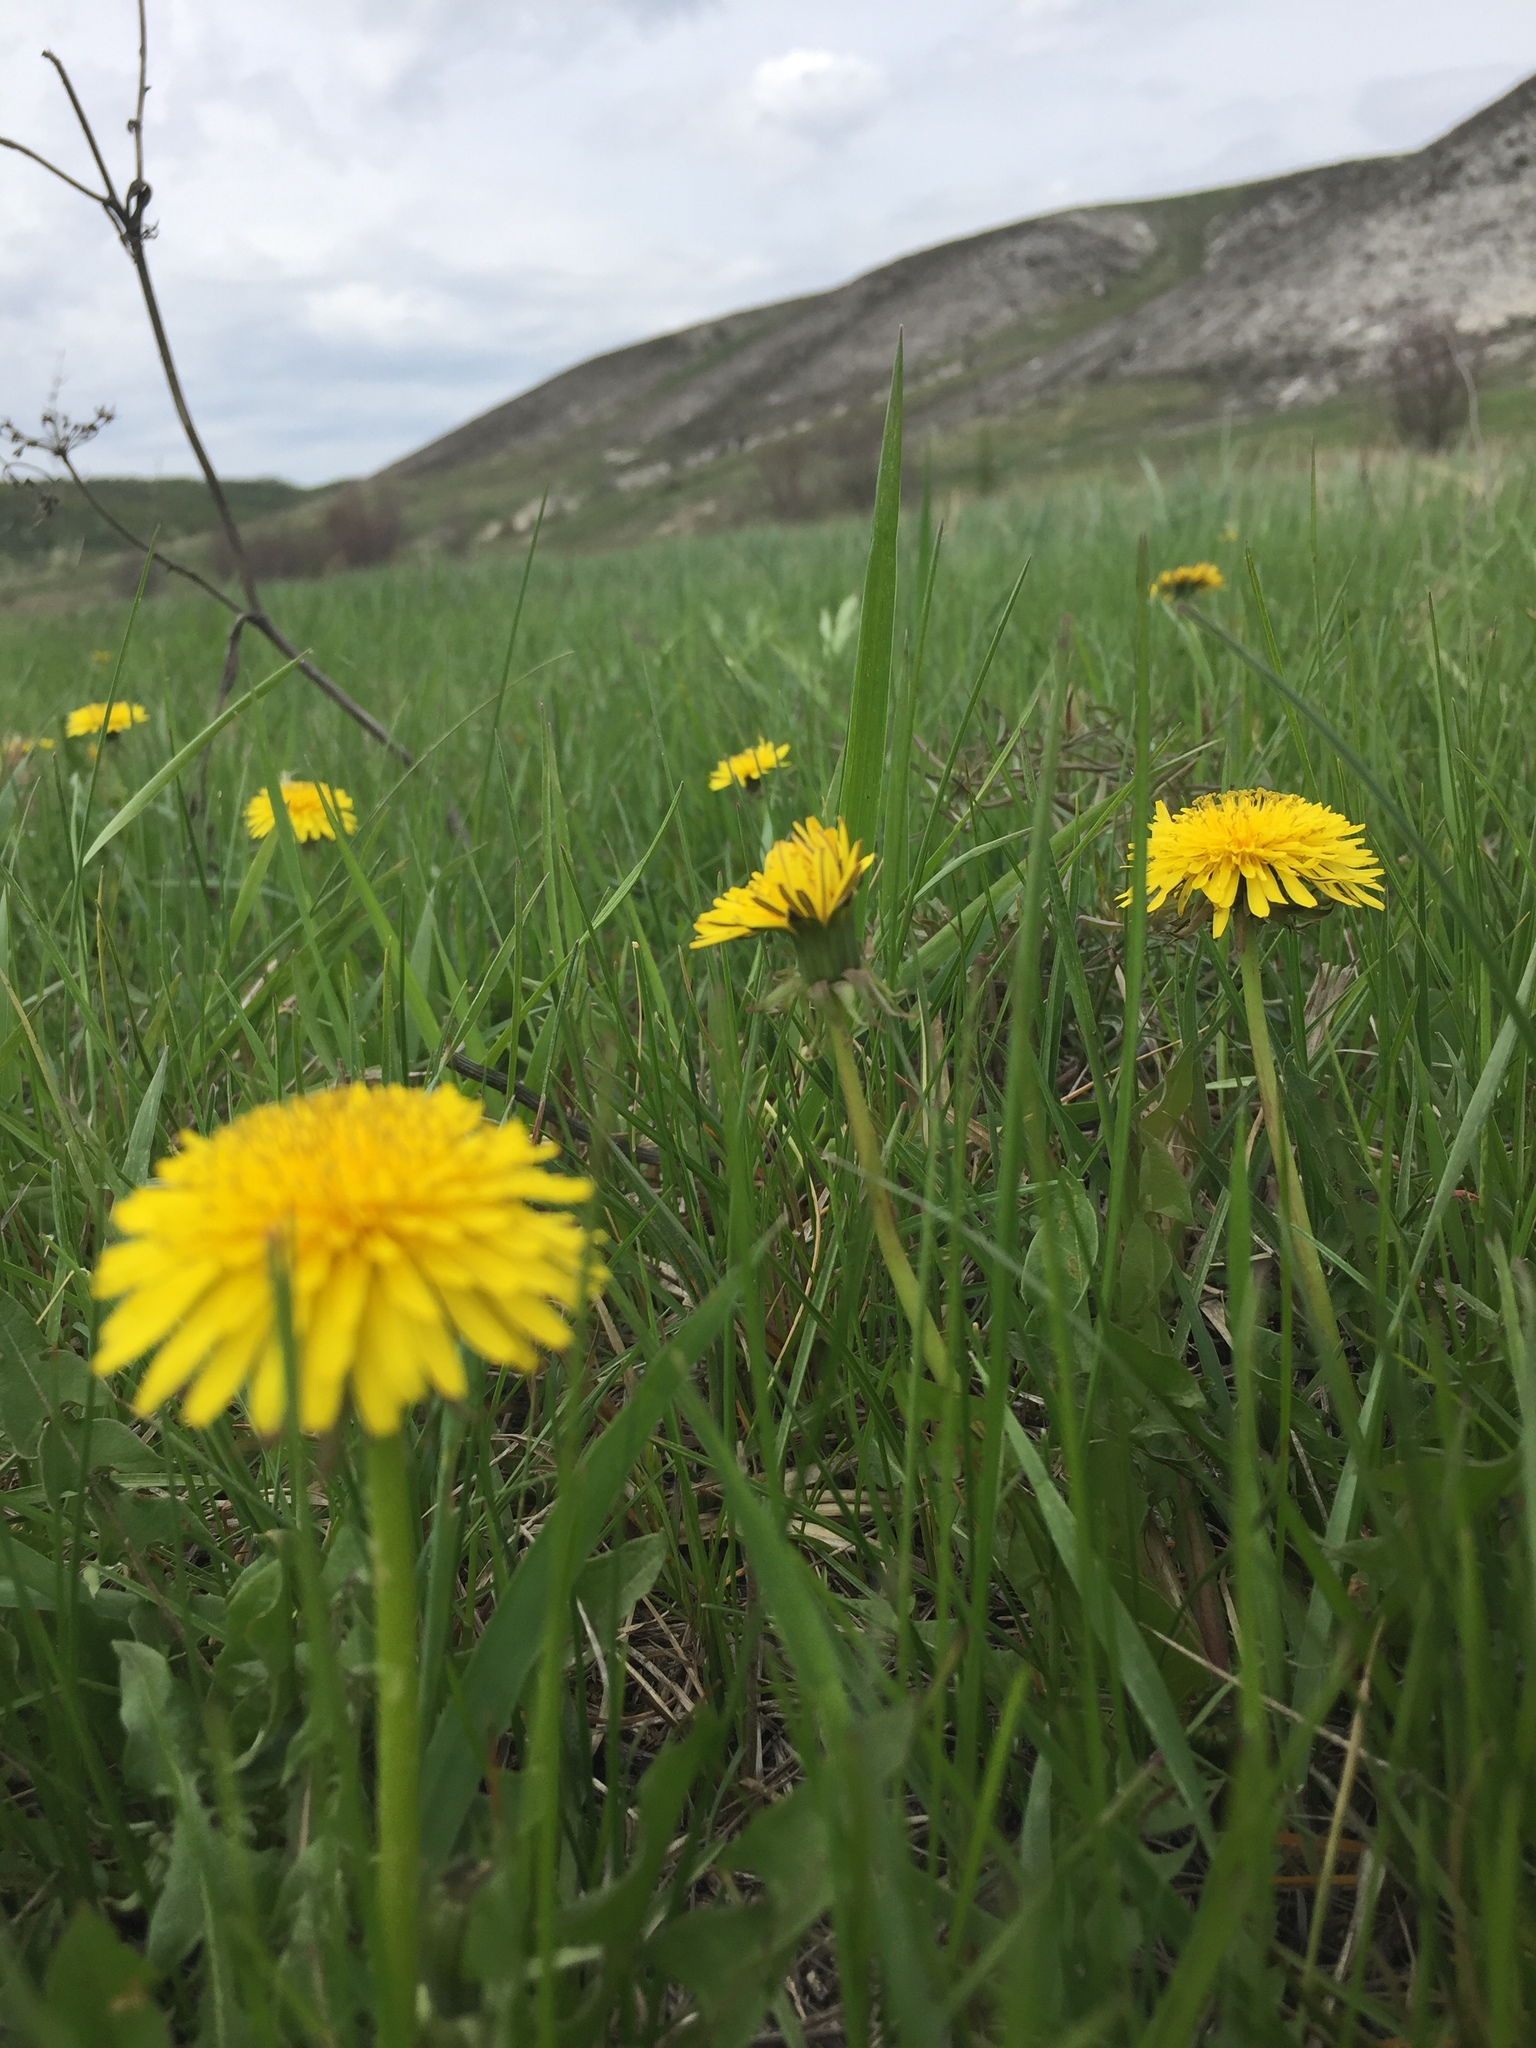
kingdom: Plantae
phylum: Tracheophyta
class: Magnoliopsida
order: Asterales
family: Asteraceae
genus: Taraxacum
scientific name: Taraxacum officinale
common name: Common dandelion
